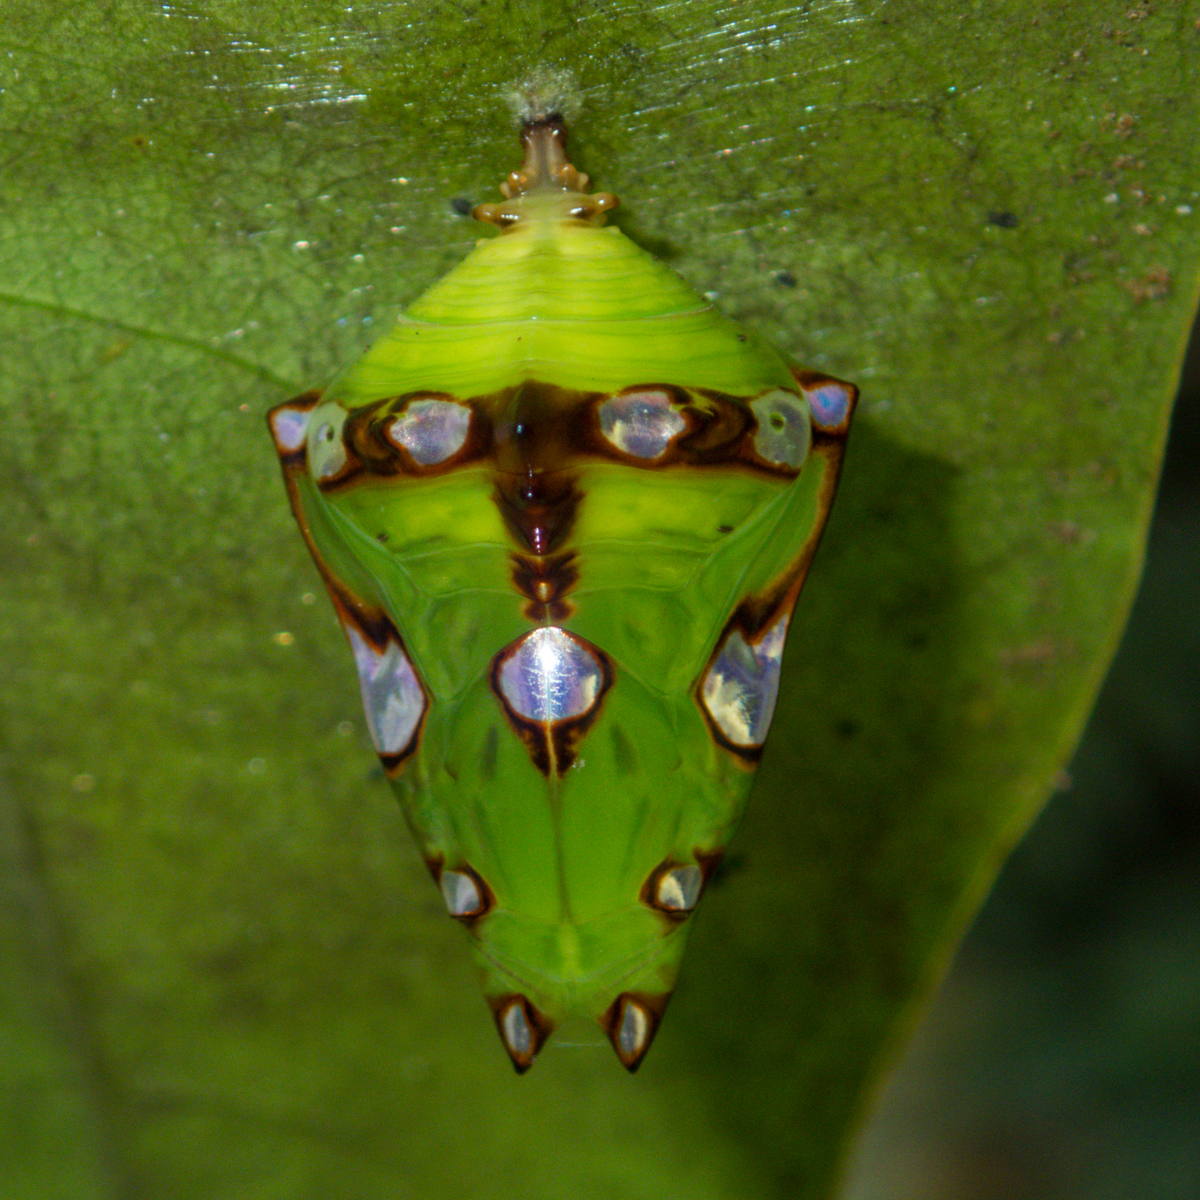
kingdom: Animalia
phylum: Arthropoda
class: Insecta
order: Lepidoptera
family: Nymphalidae
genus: Euthalia
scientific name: Euthalia anosia
